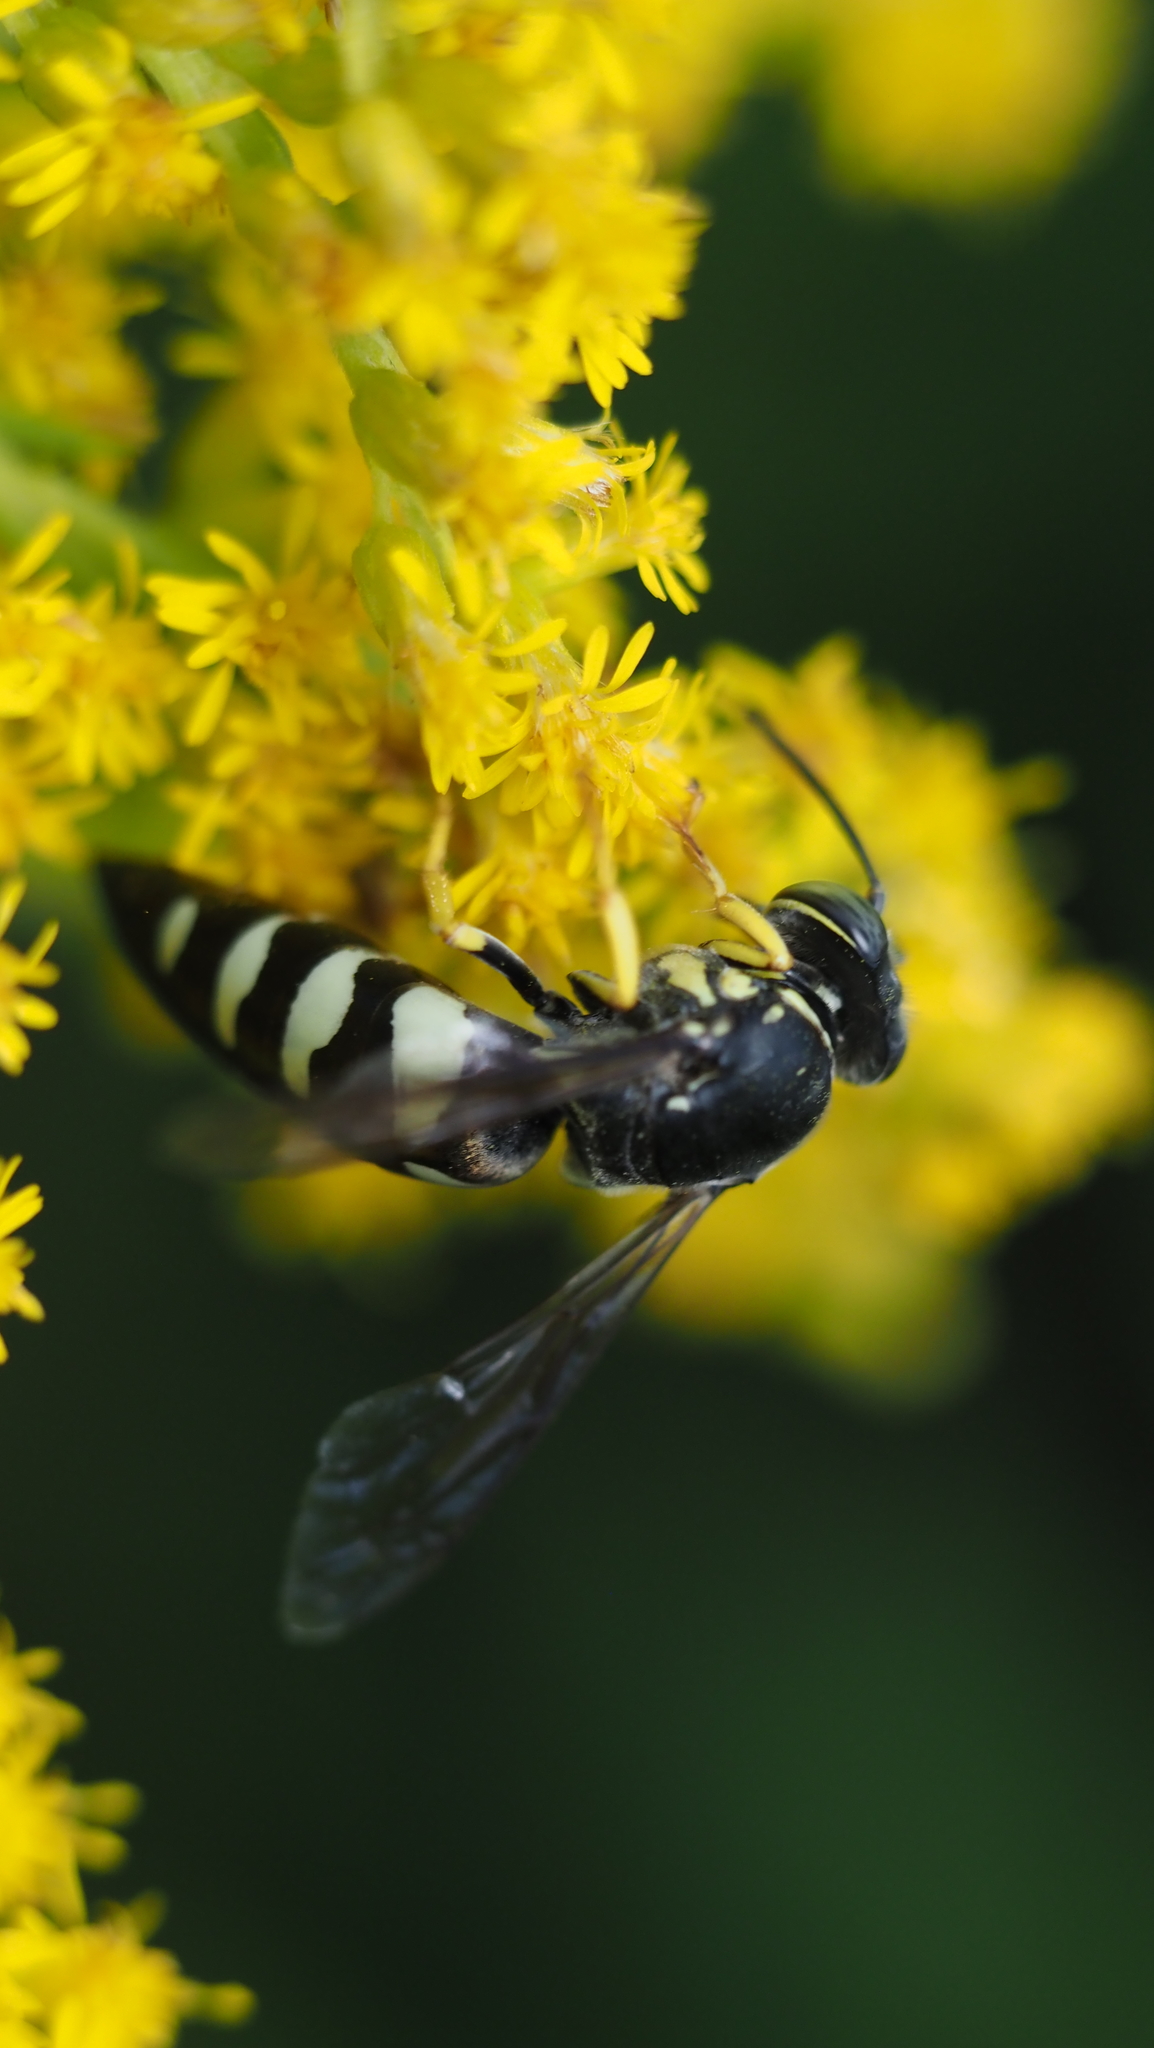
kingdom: Animalia
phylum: Arthropoda
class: Insecta
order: Hymenoptera
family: Crabronidae
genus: Bicyrtes
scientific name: Bicyrtes quadrifasciatus
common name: Four-banded stink bug hunter wasp
